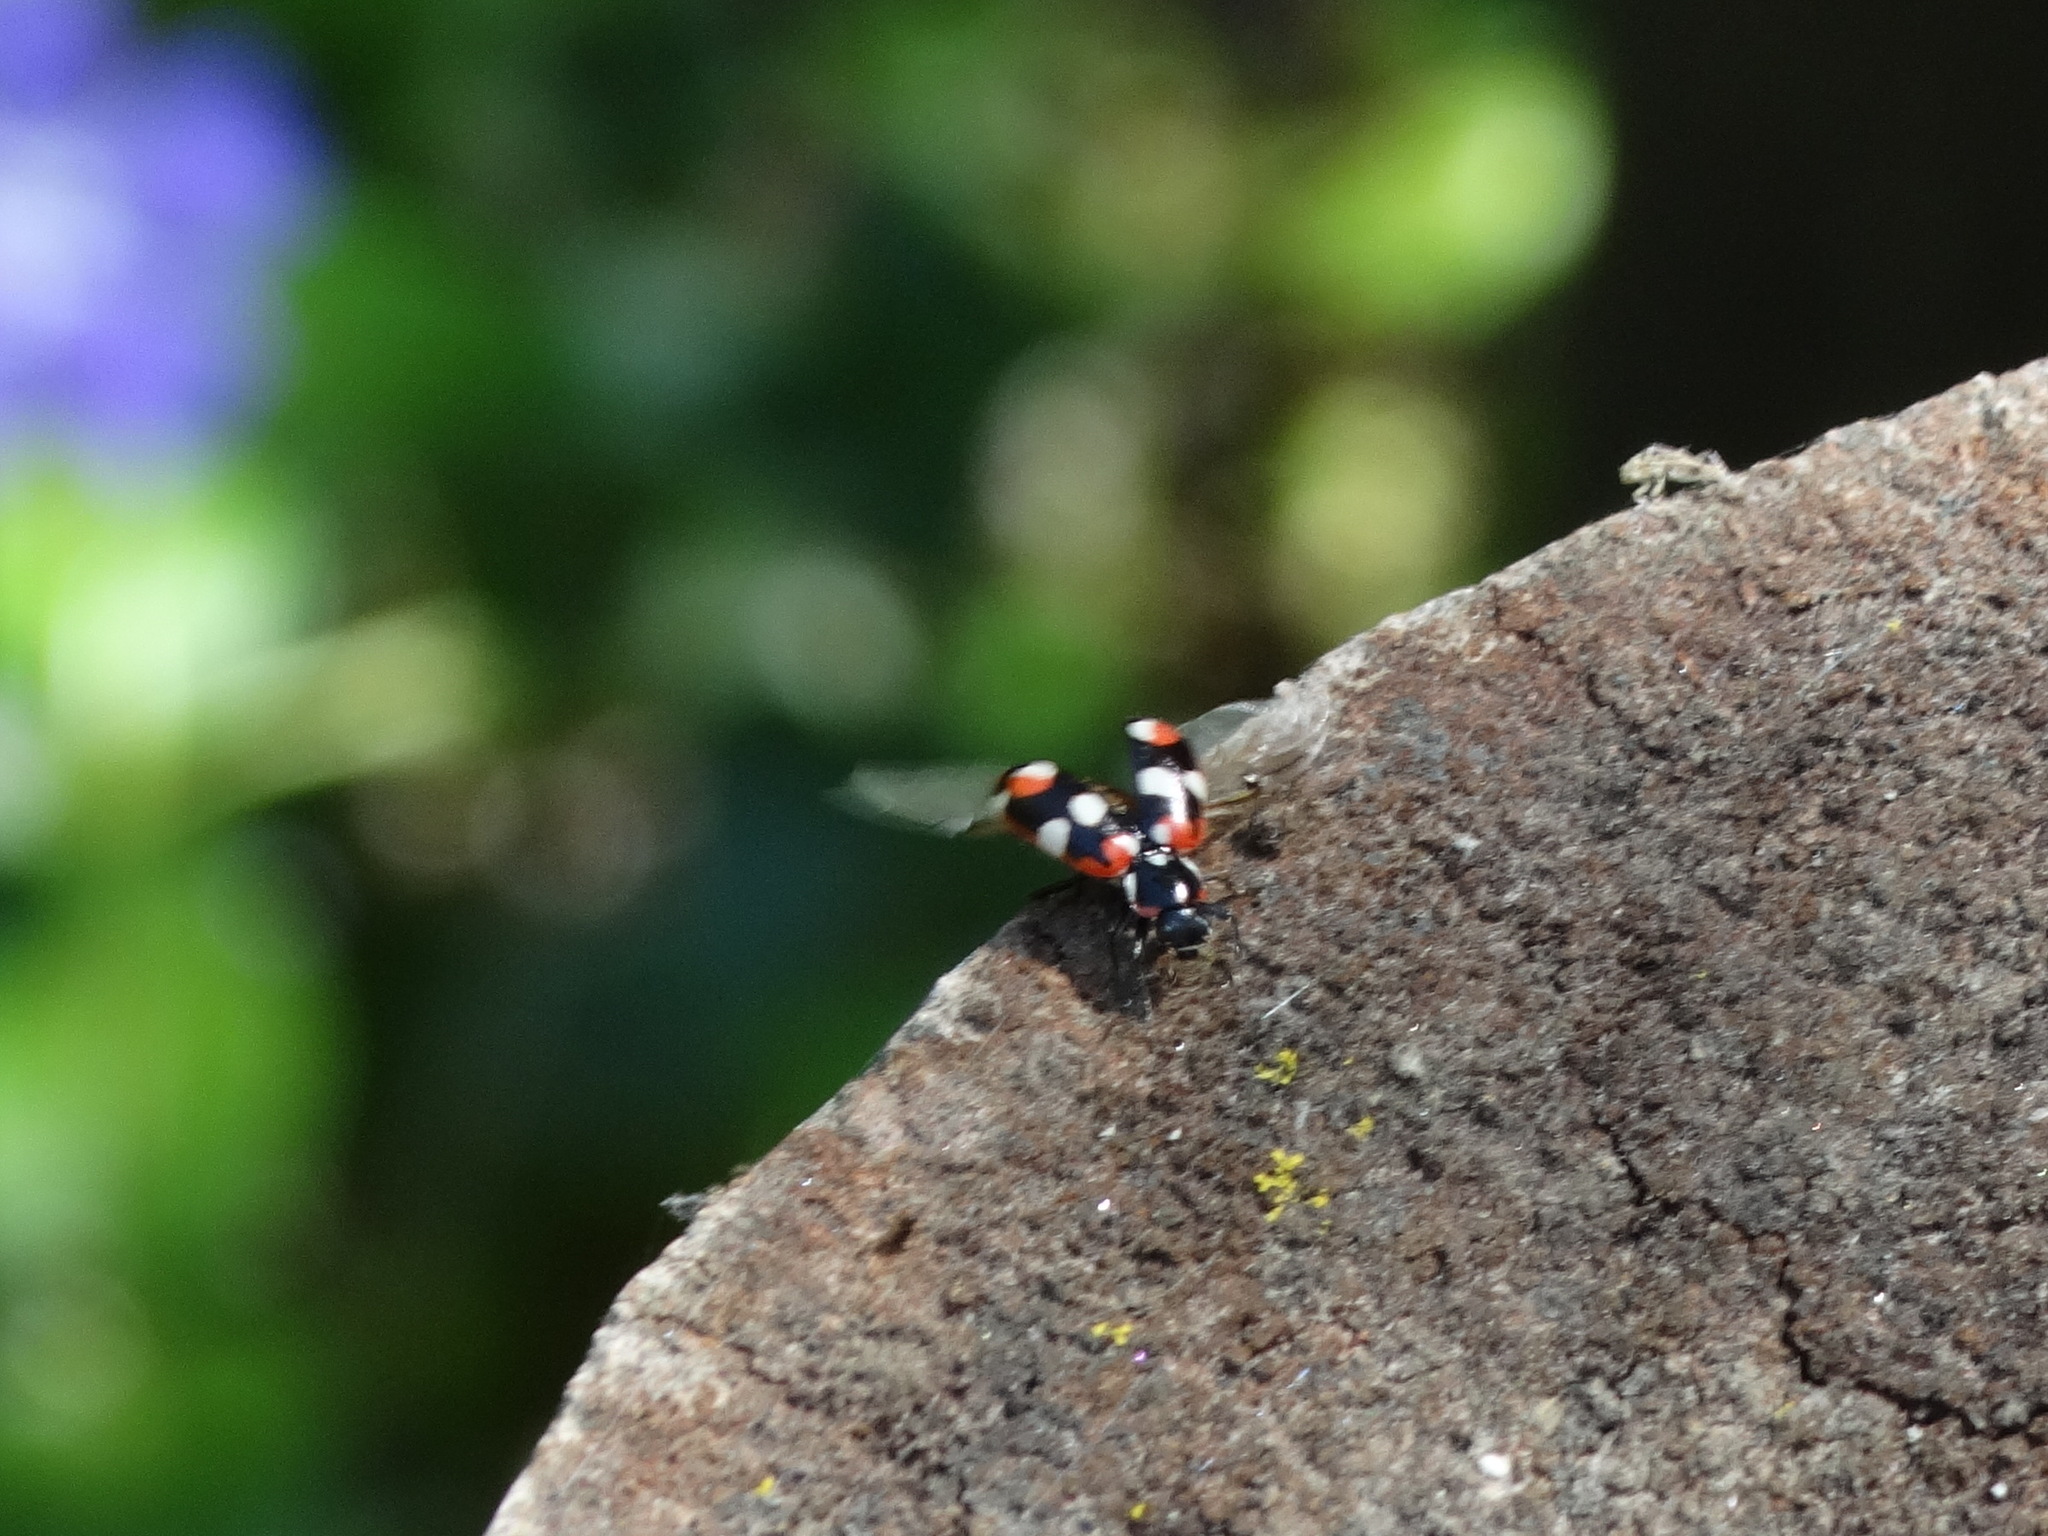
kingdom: Animalia
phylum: Arthropoda
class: Insecta
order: Coleoptera
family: Coccinellidae
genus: Eriopis
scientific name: Eriopis connexa
